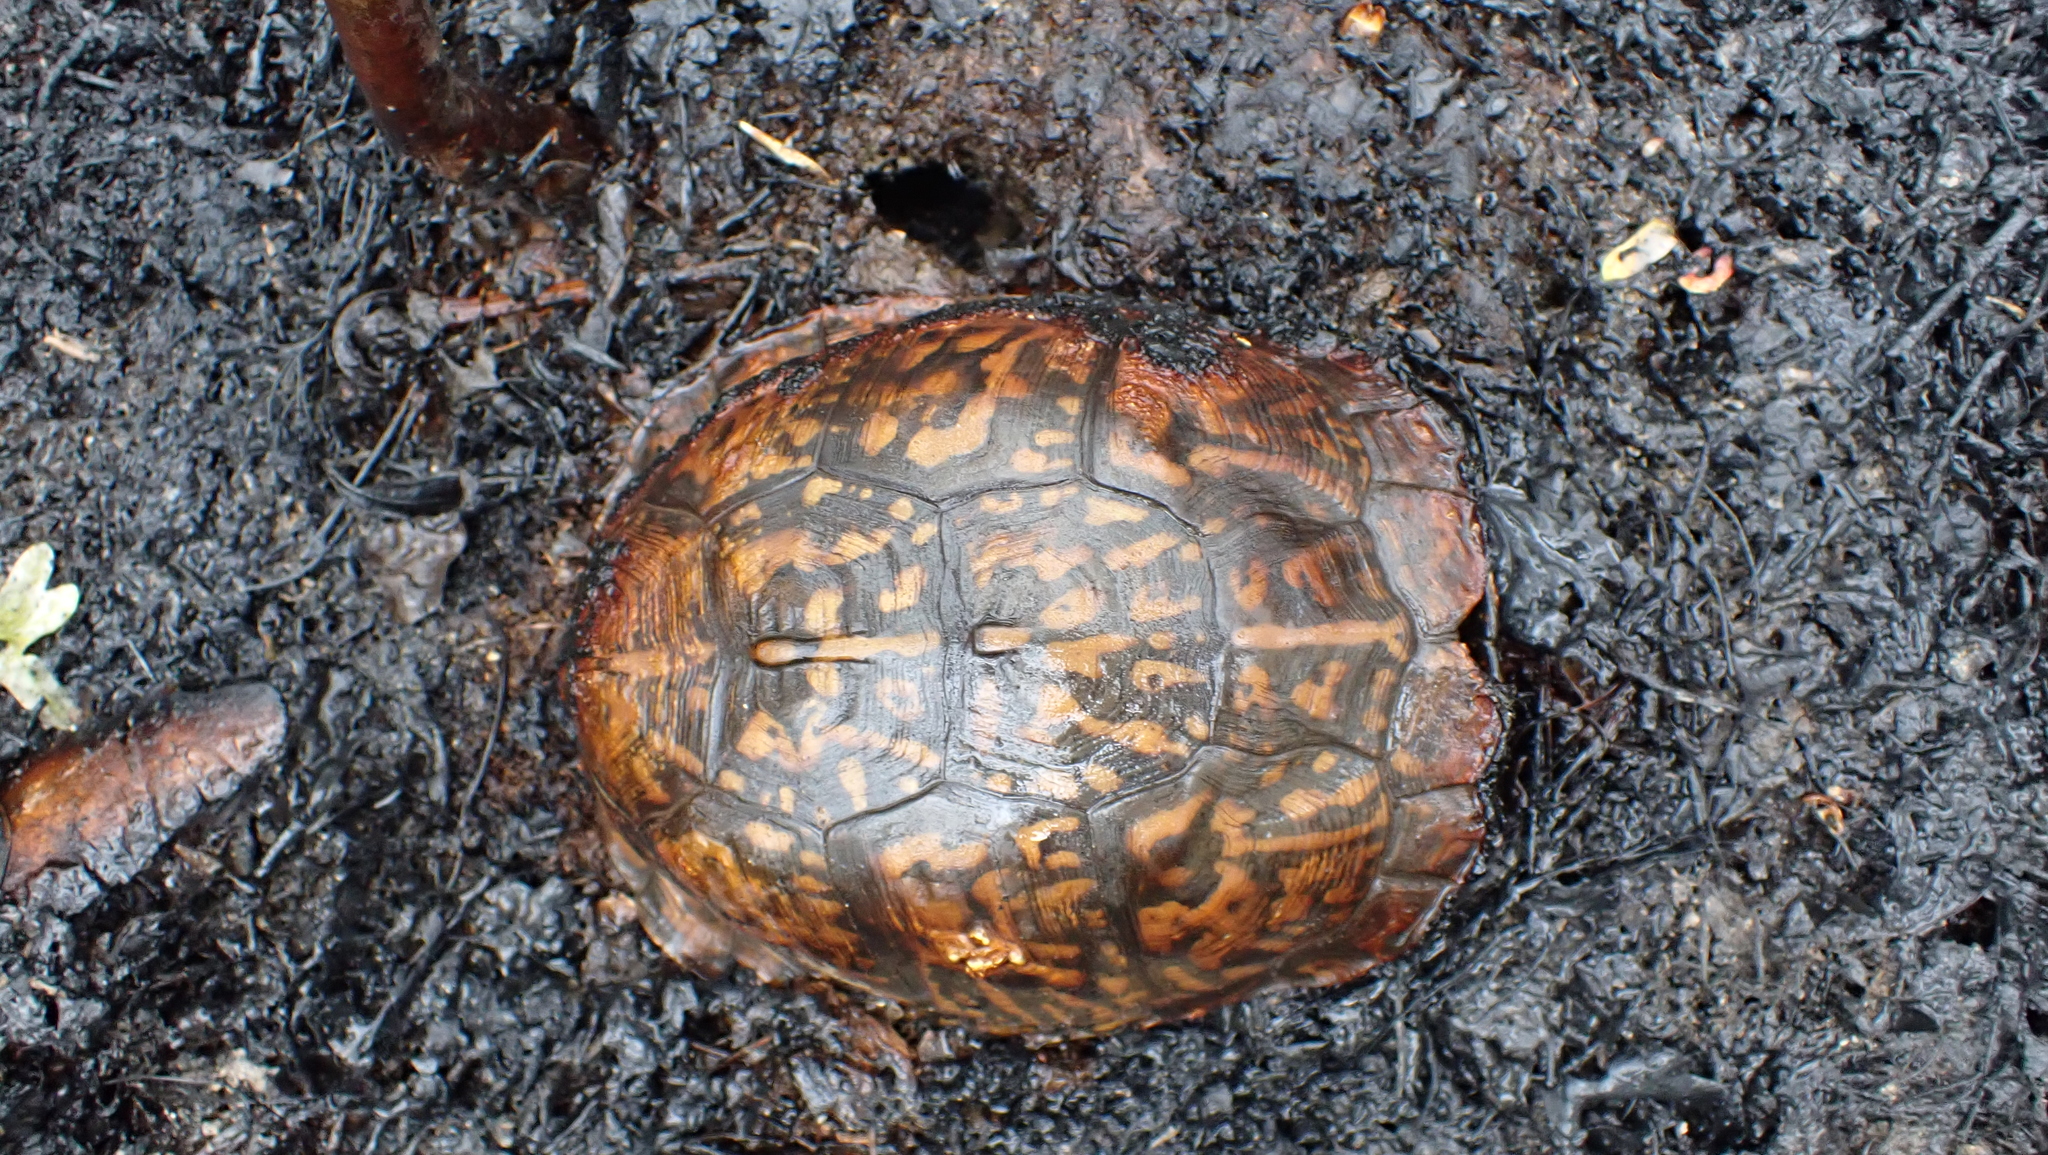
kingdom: Animalia
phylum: Chordata
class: Testudines
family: Emydidae
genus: Terrapene
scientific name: Terrapene carolina
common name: Common box turtle
